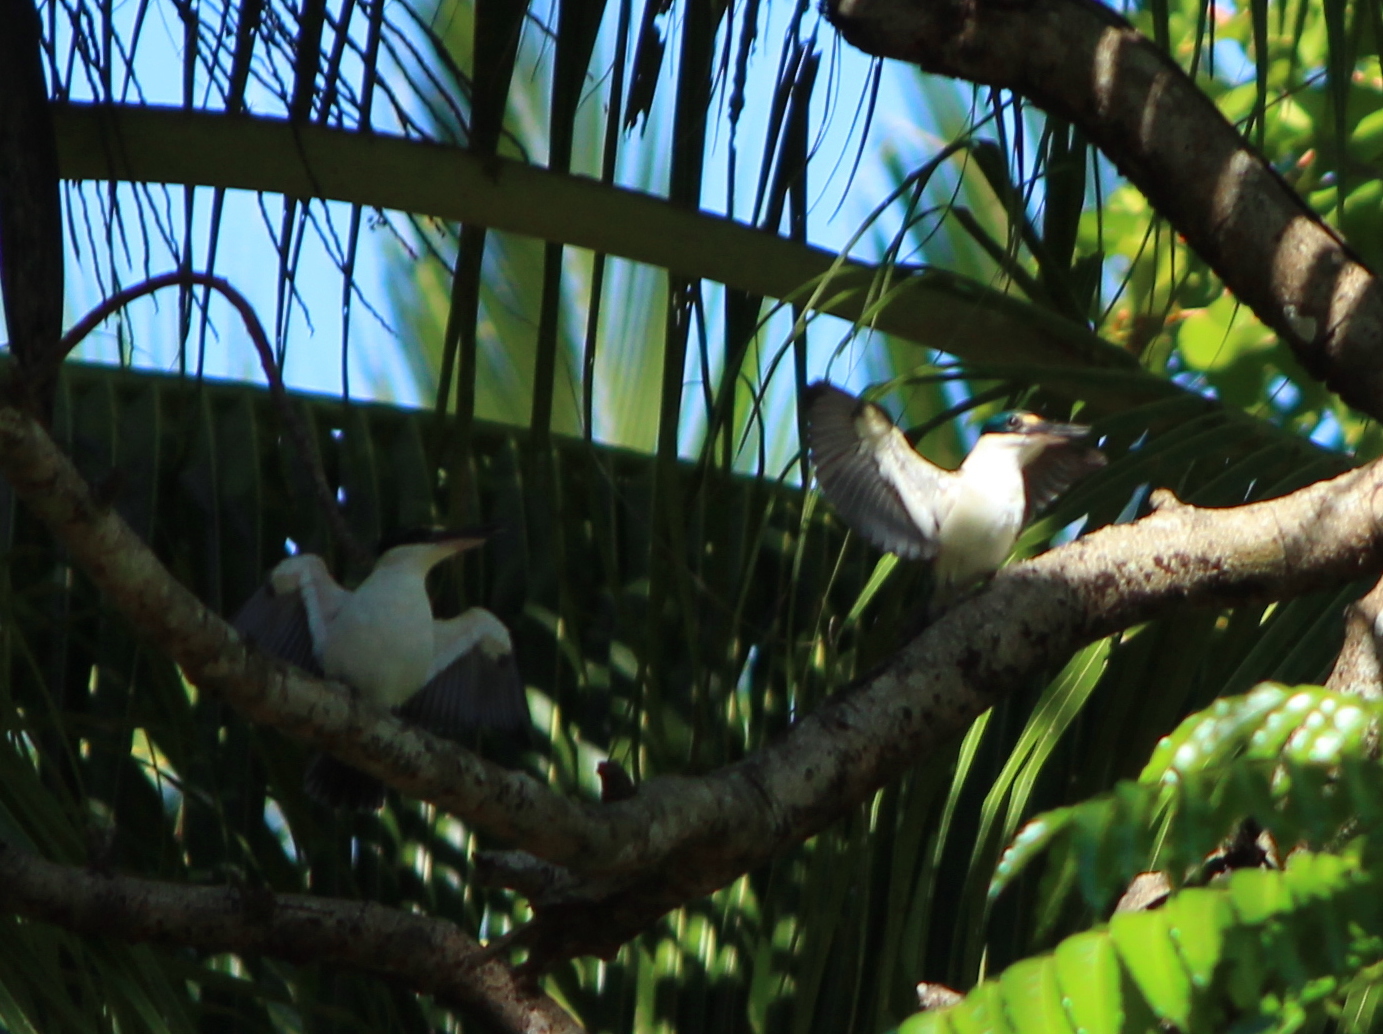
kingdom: Animalia
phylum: Chordata
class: Aves
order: Coraciiformes
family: Alcedinidae
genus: Todiramphus
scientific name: Todiramphus chloris
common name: Collared kingfisher
